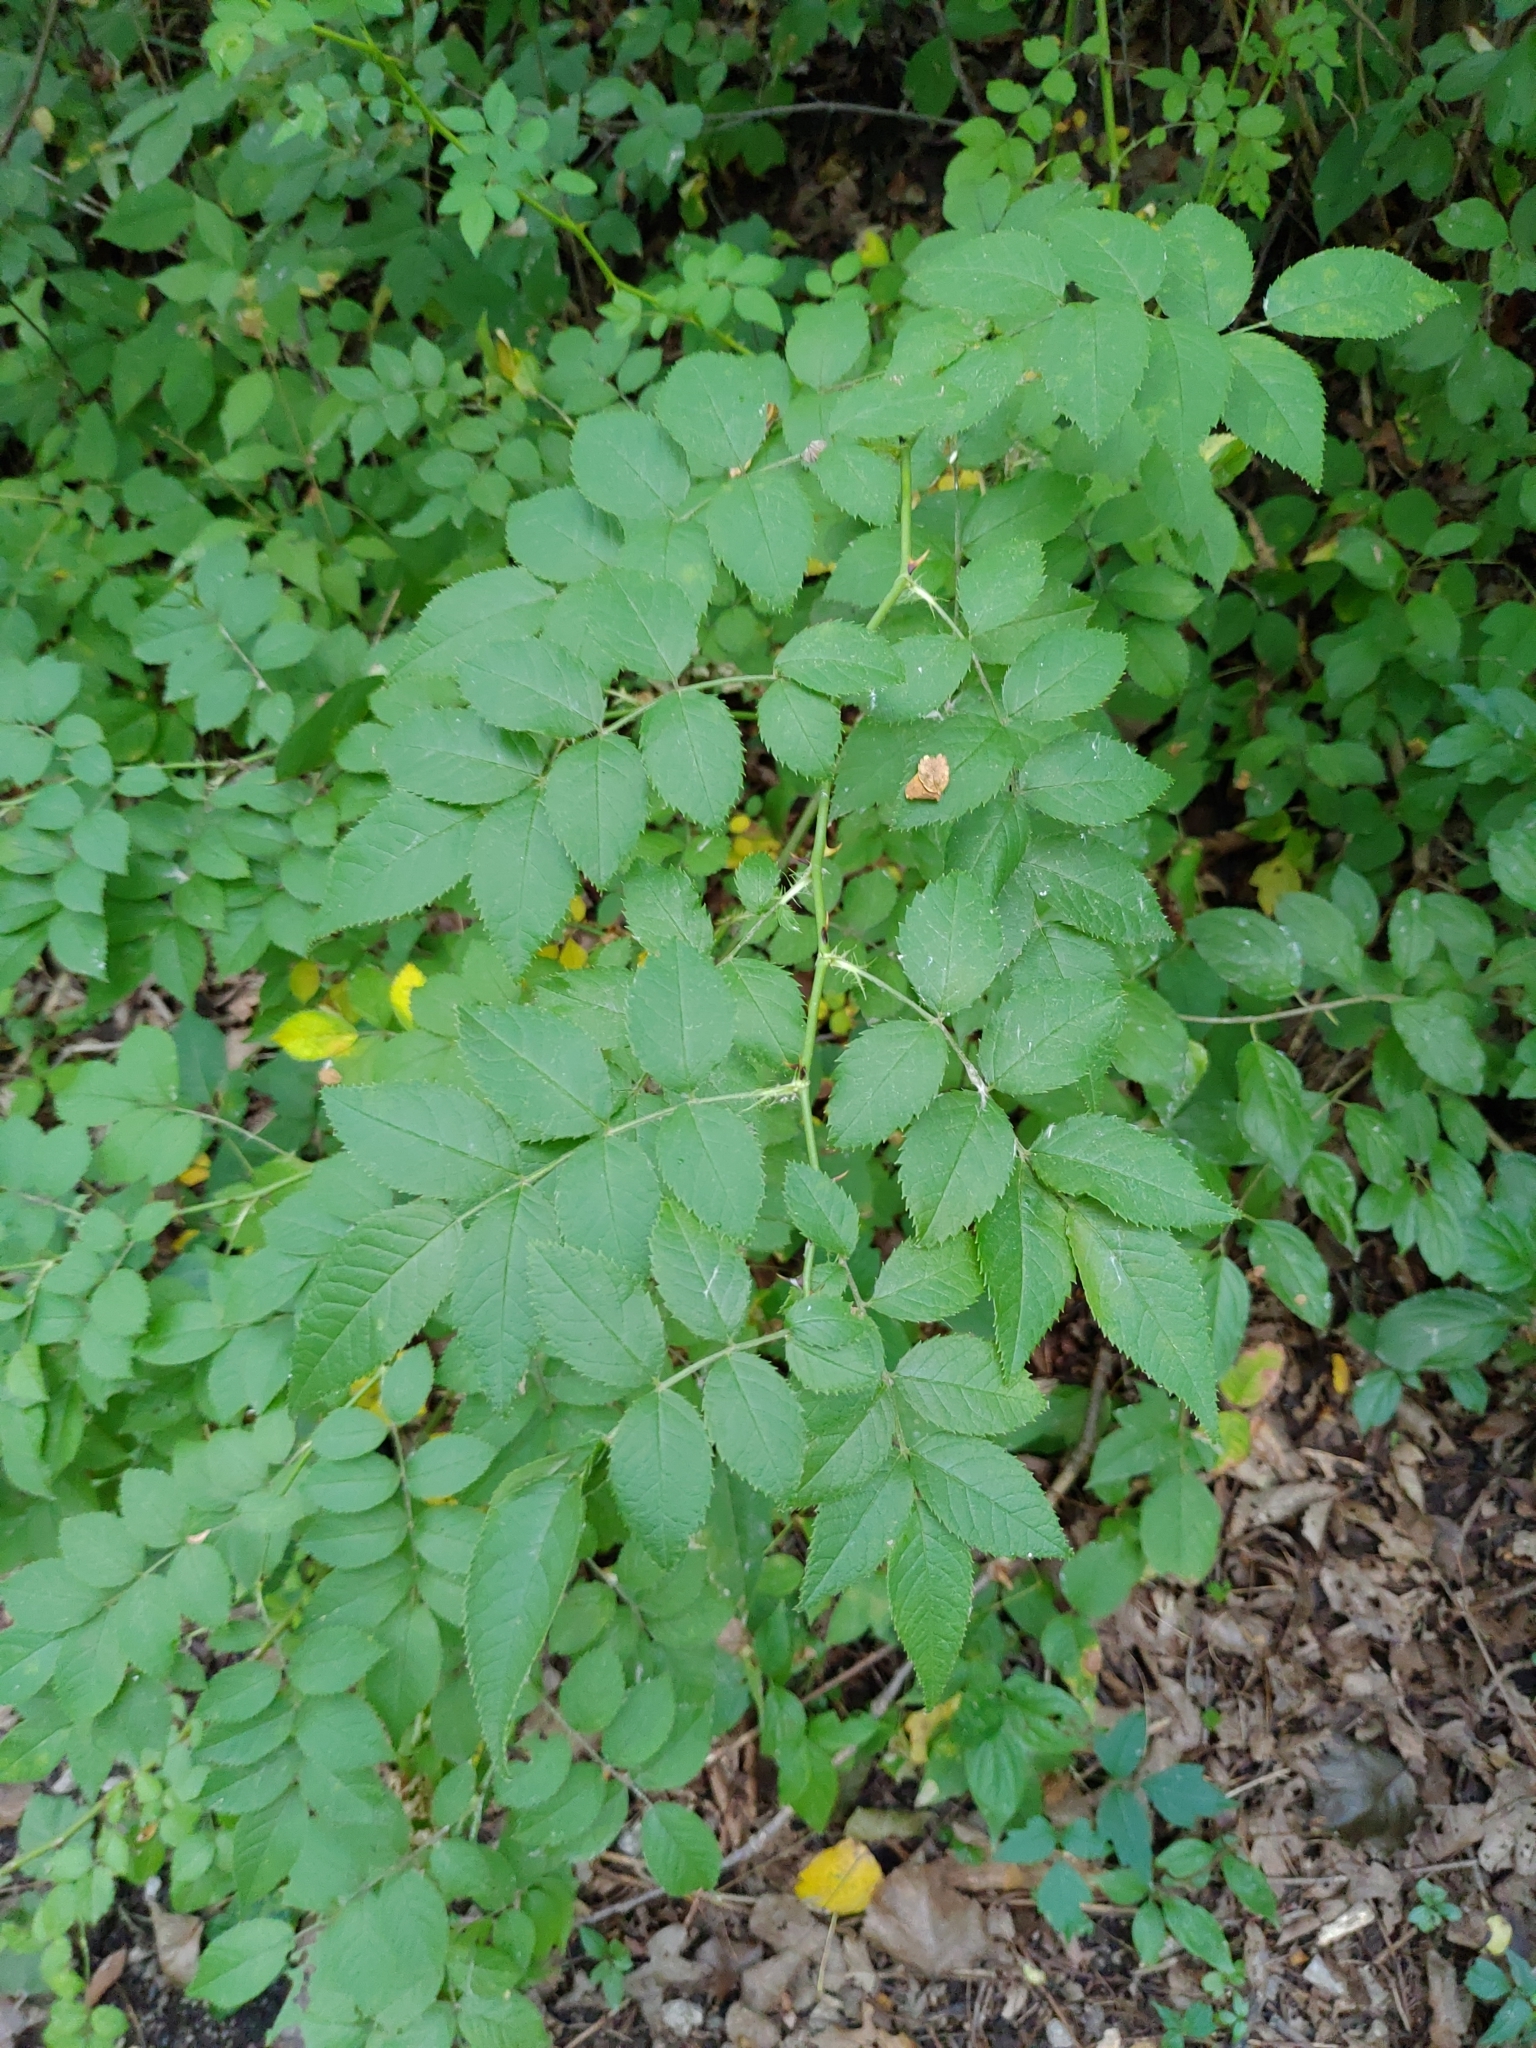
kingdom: Plantae
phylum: Tracheophyta
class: Magnoliopsida
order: Rosales
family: Rosaceae
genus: Rosa
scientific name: Rosa multiflora
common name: Multiflora rose
